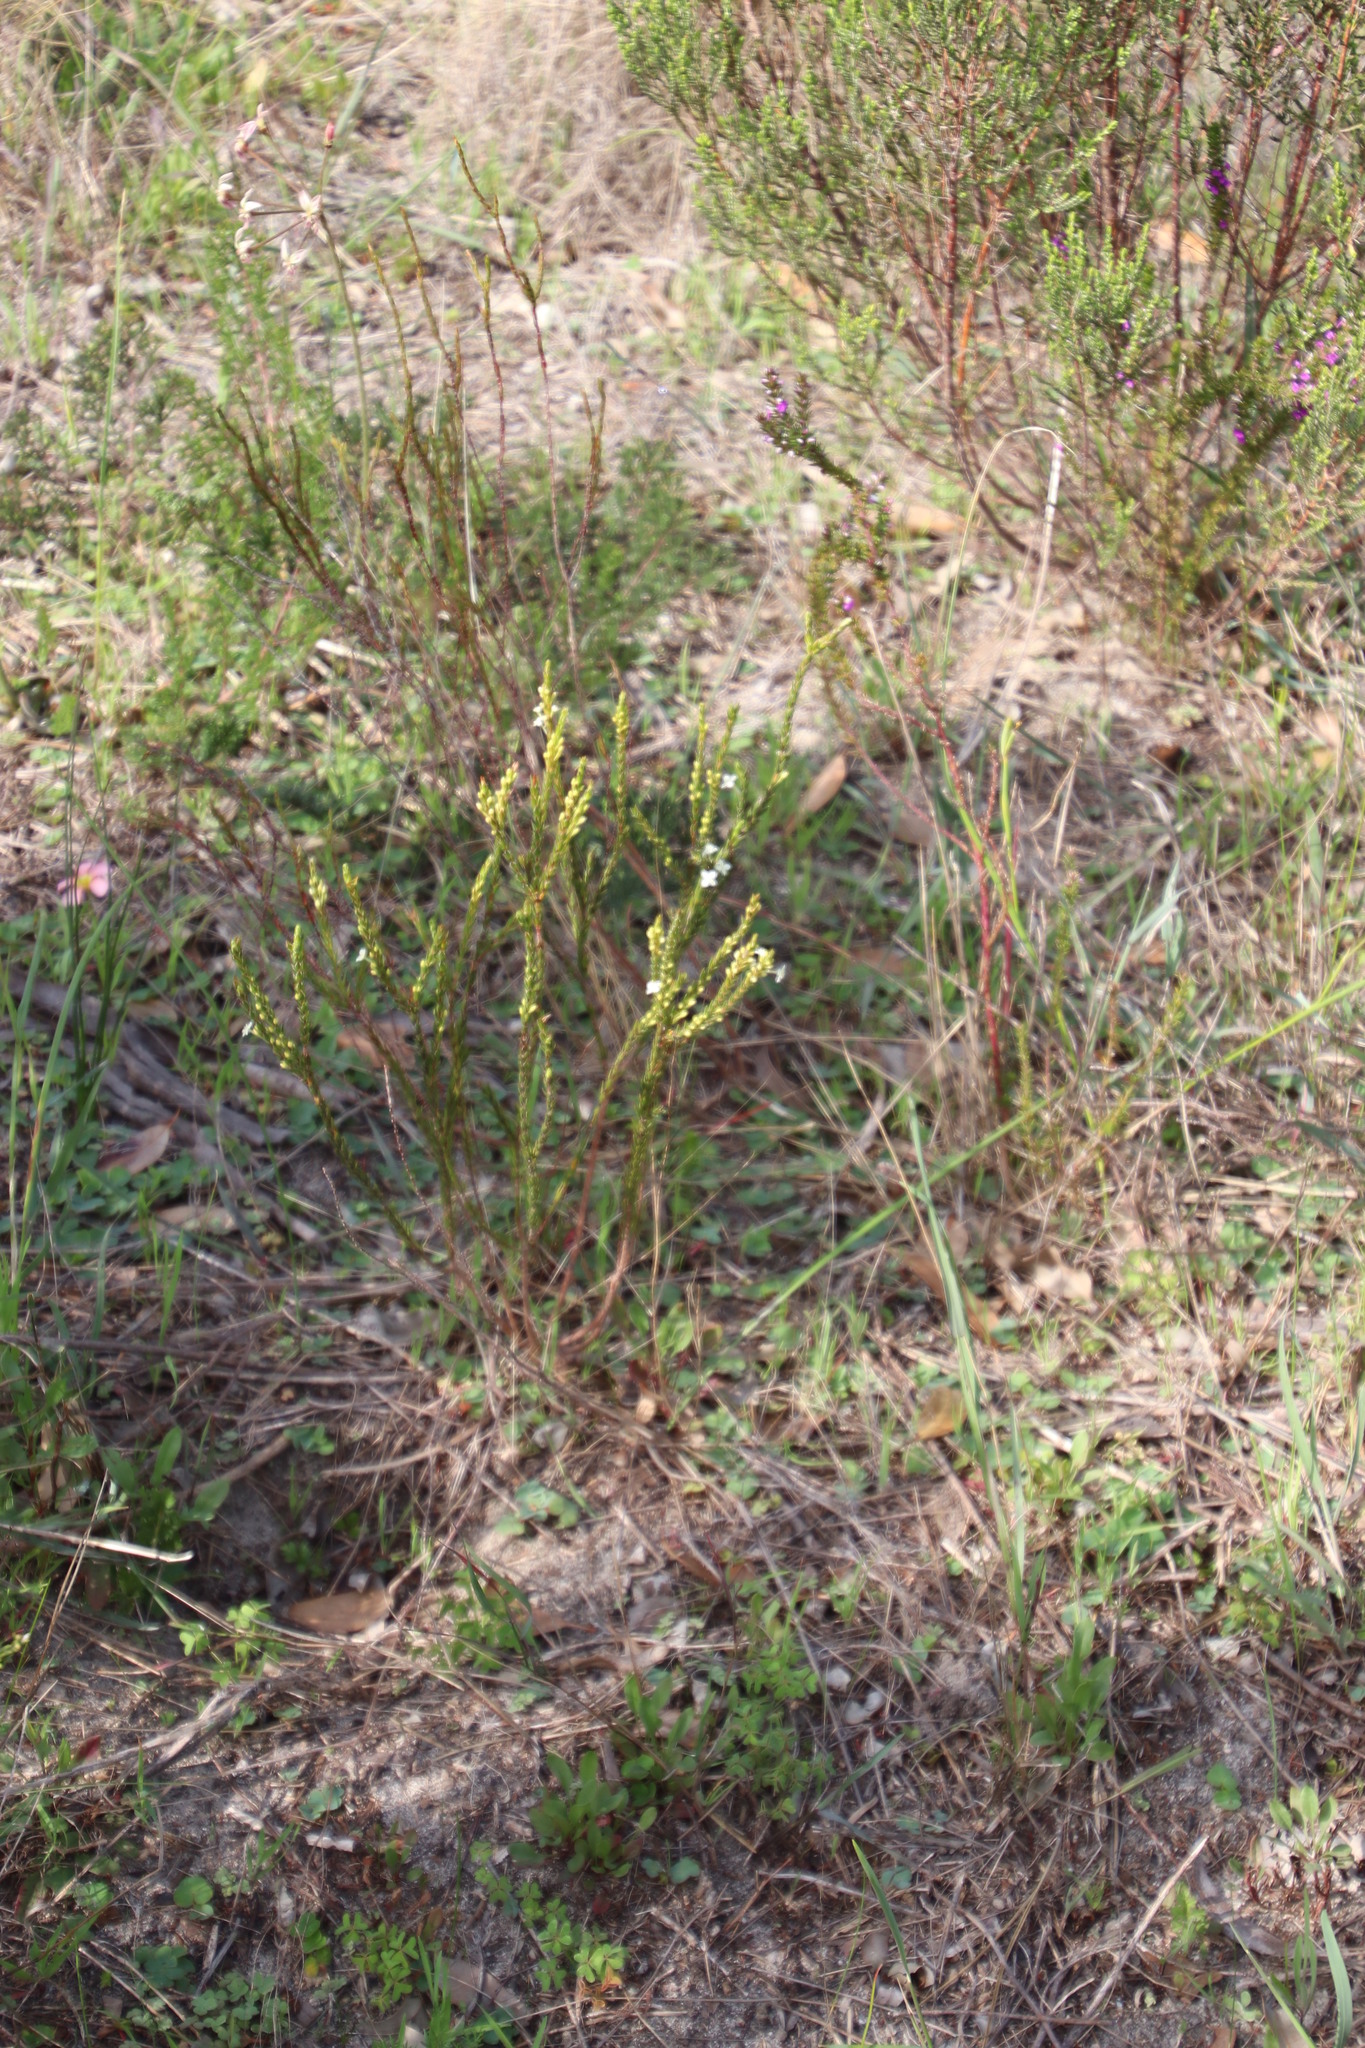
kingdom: Plantae
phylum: Tracheophyta
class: Magnoliopsida
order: Malvales
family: Thymelaeaceae
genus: Struthiola
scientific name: Struthiola ciliata
